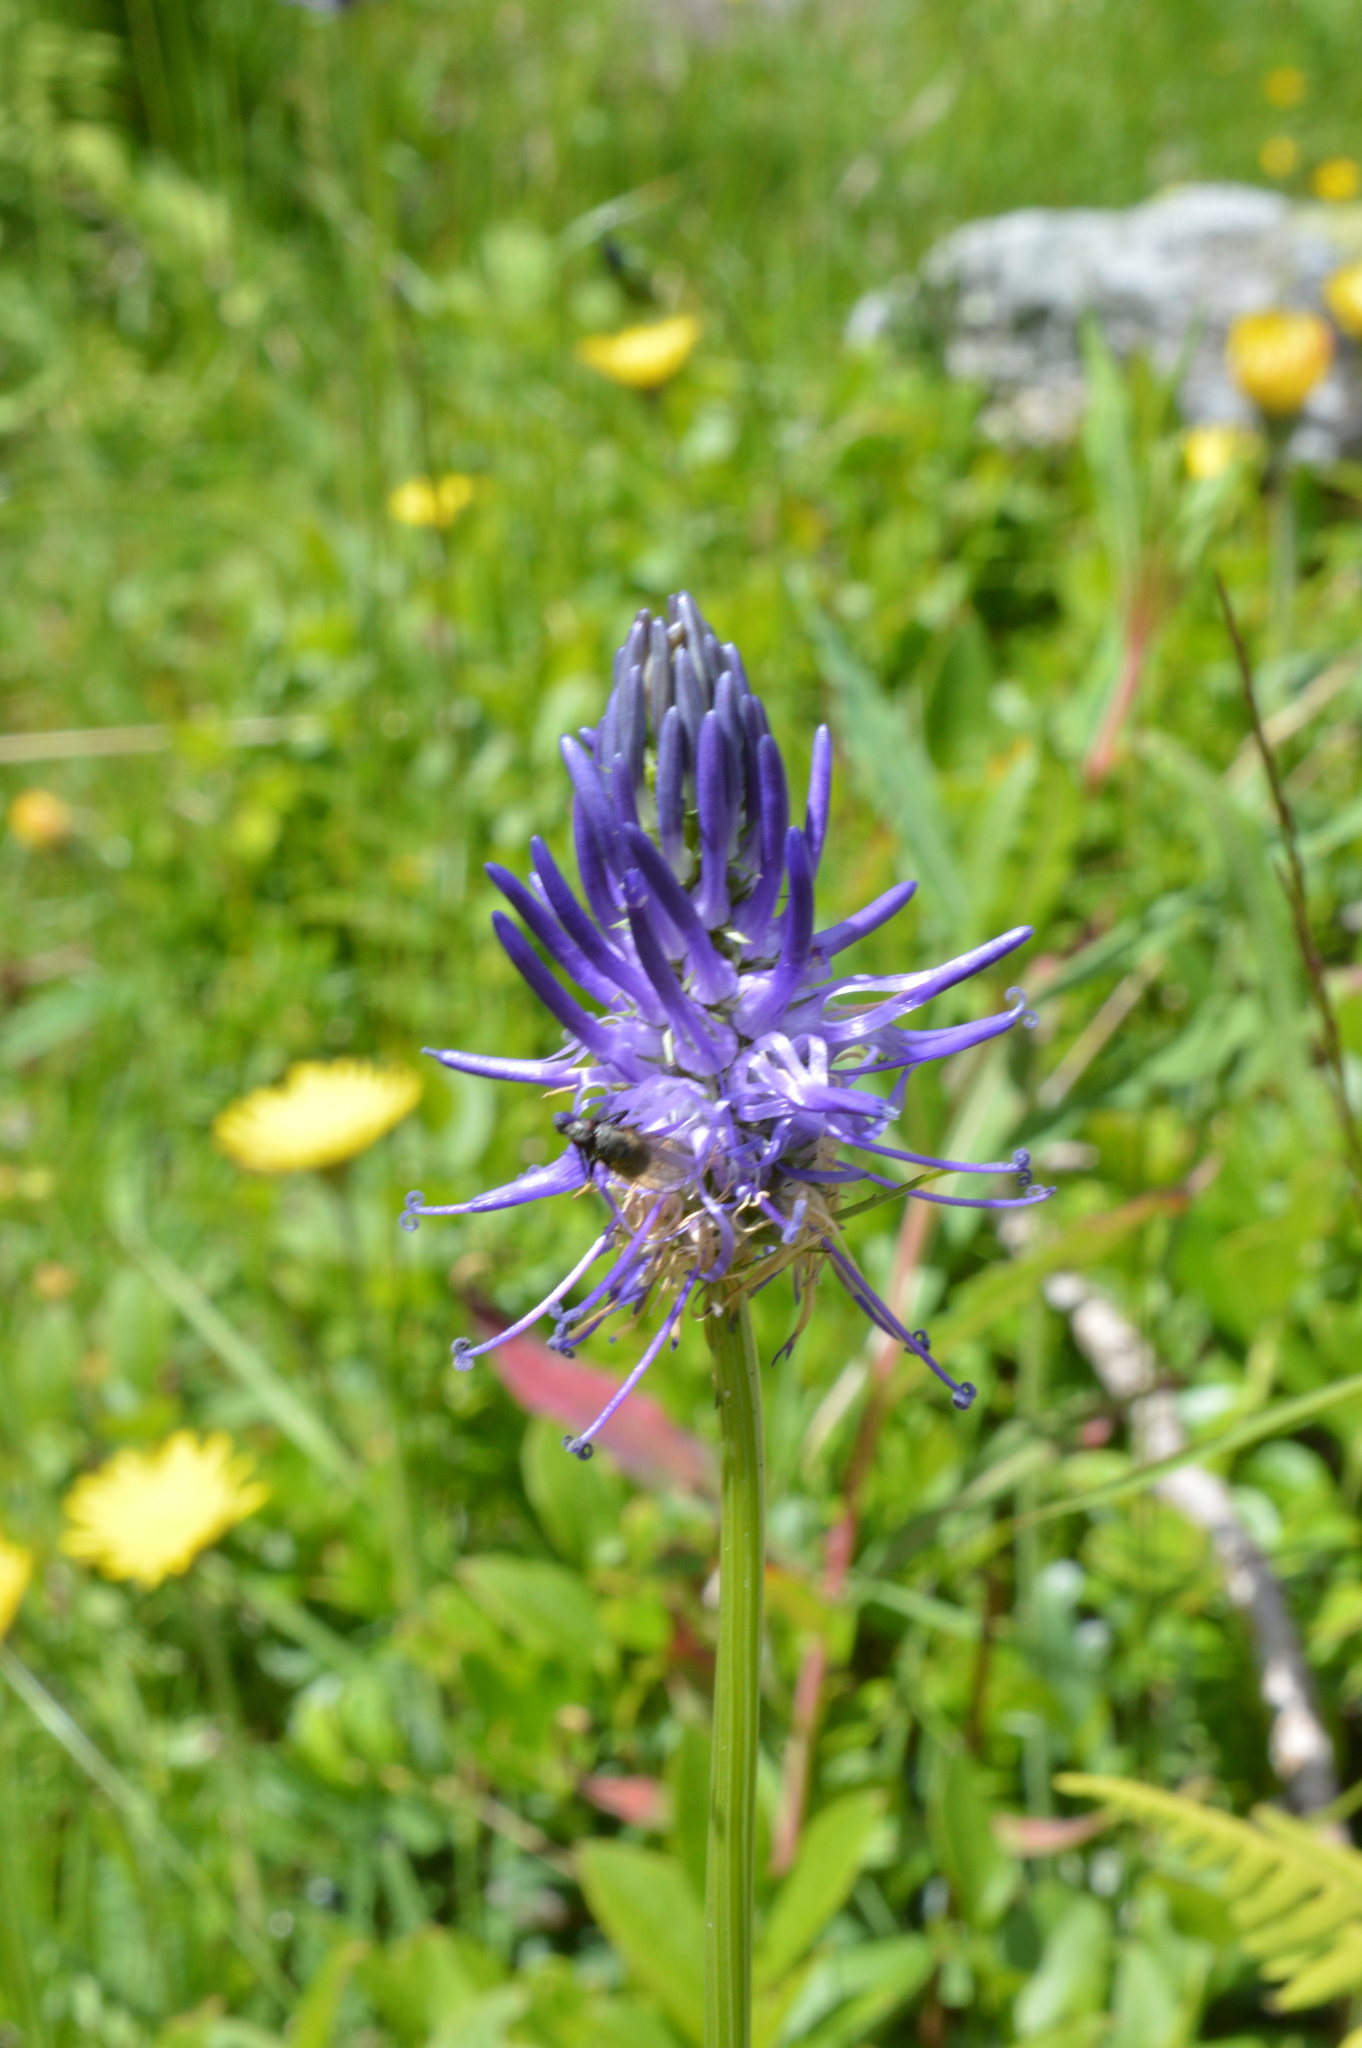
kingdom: Plantae
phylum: Tracheophyta
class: Magnoliopsida
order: Asterales
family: Campanulaceae
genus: Phyteuma
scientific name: Phyteuma betonicifolium
